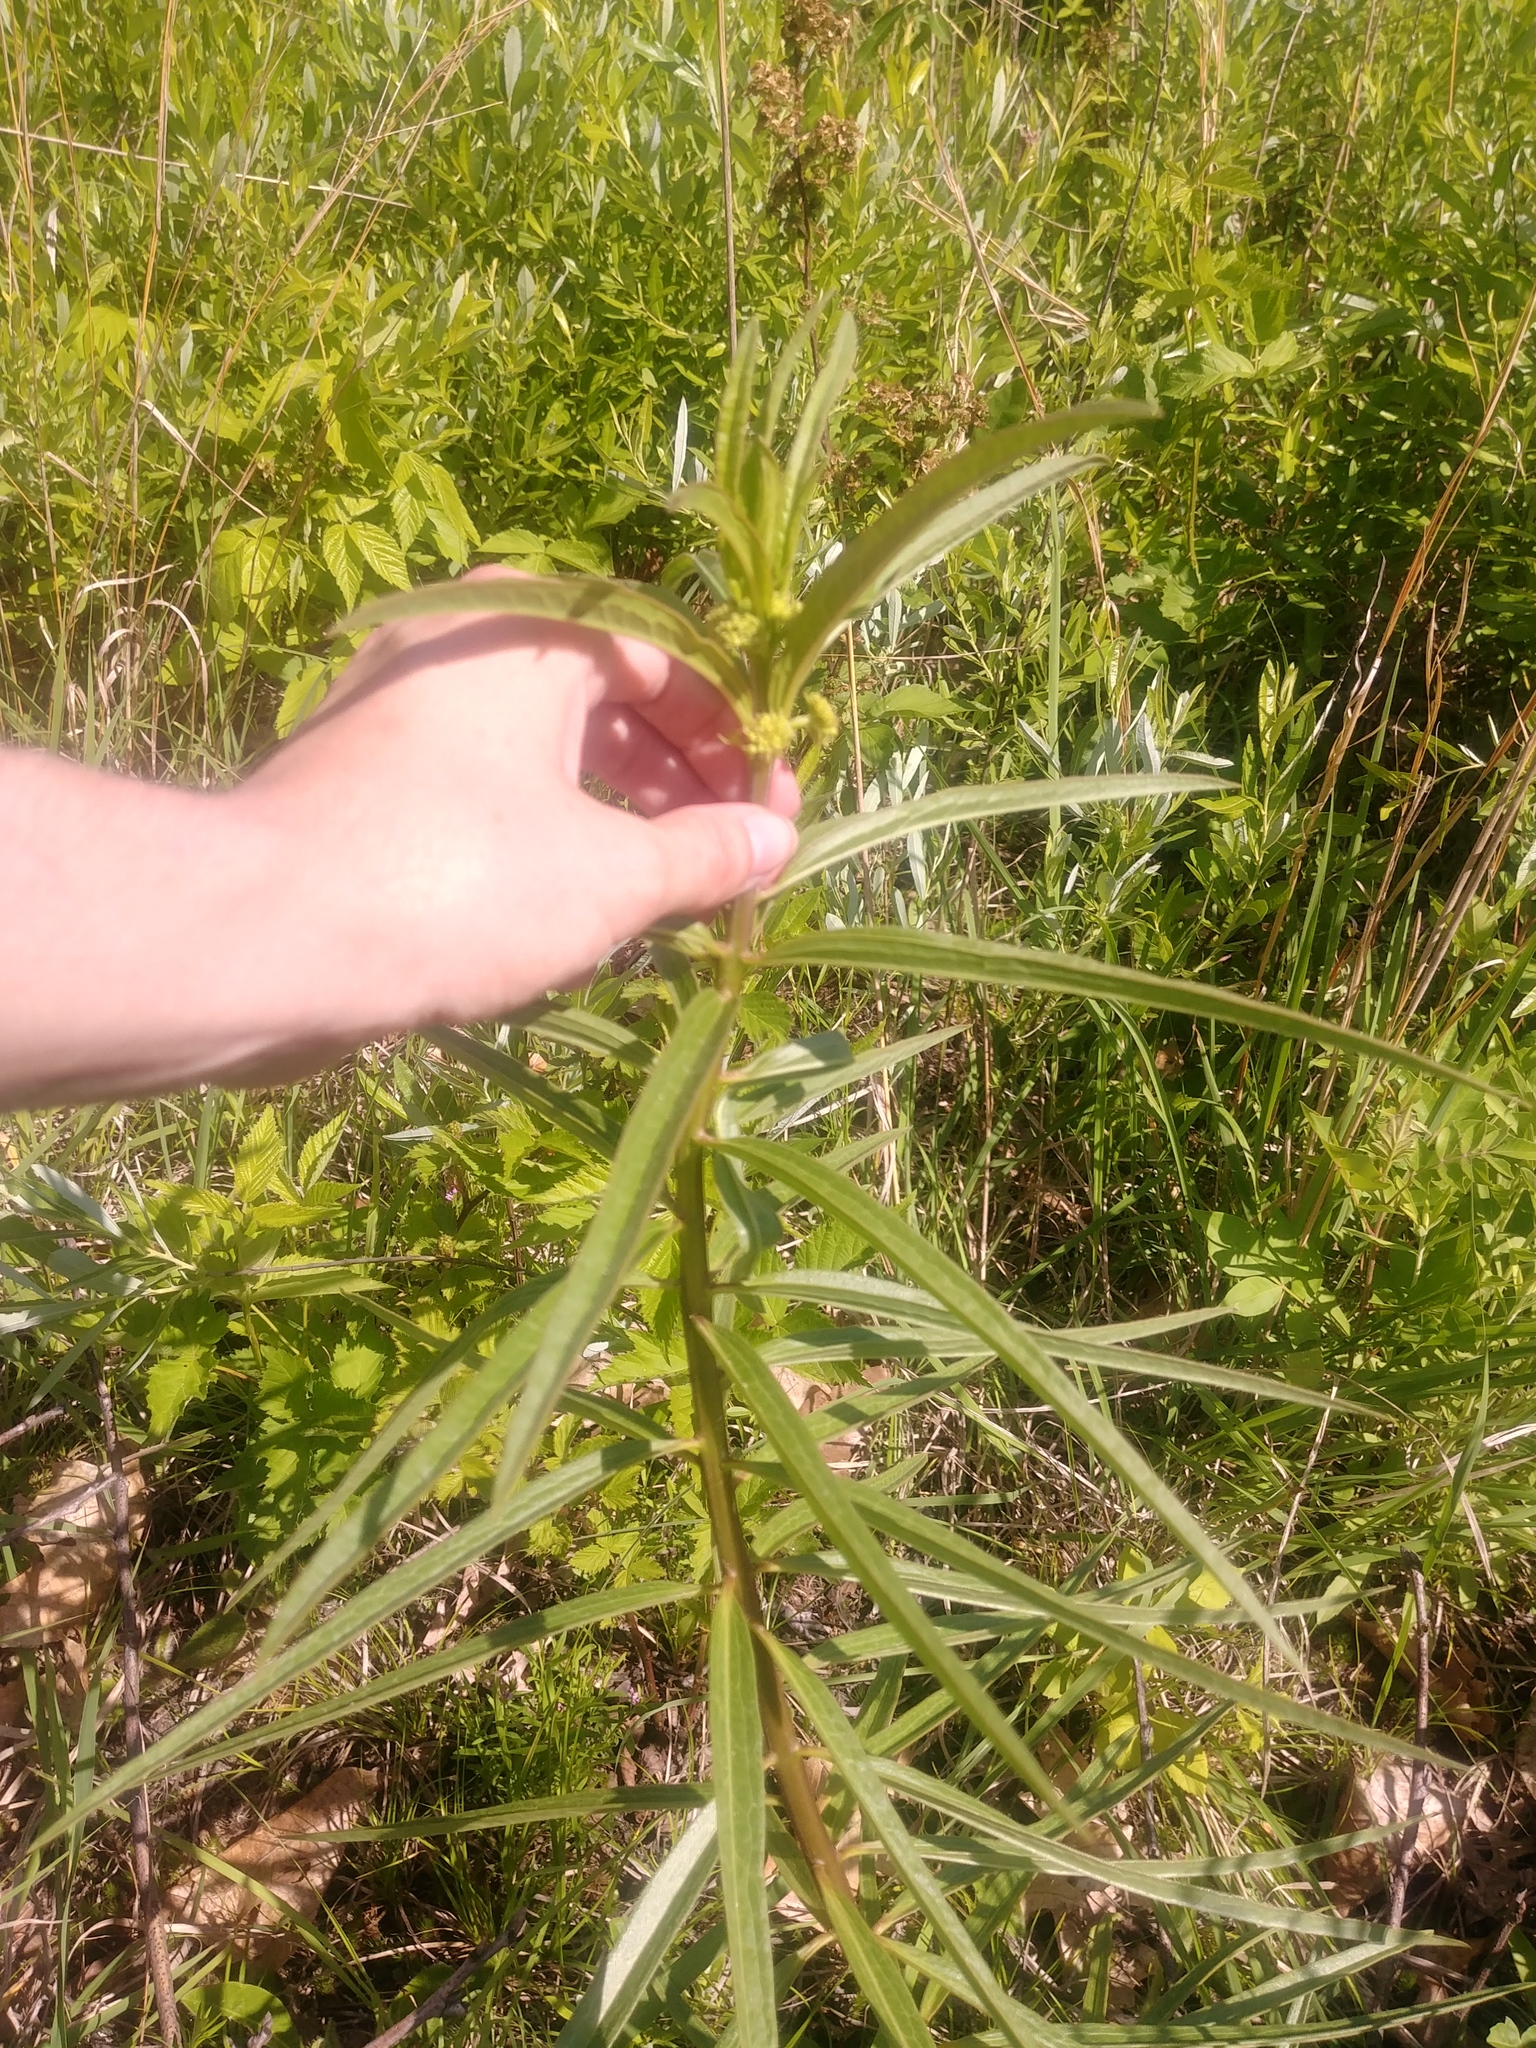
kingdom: Plantae
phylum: Tracheophyta
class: Magnoliopsida
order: Gentianales
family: Apocynaceae
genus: Asclepias
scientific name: Asclepias hirtella
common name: Prairie milkweed
